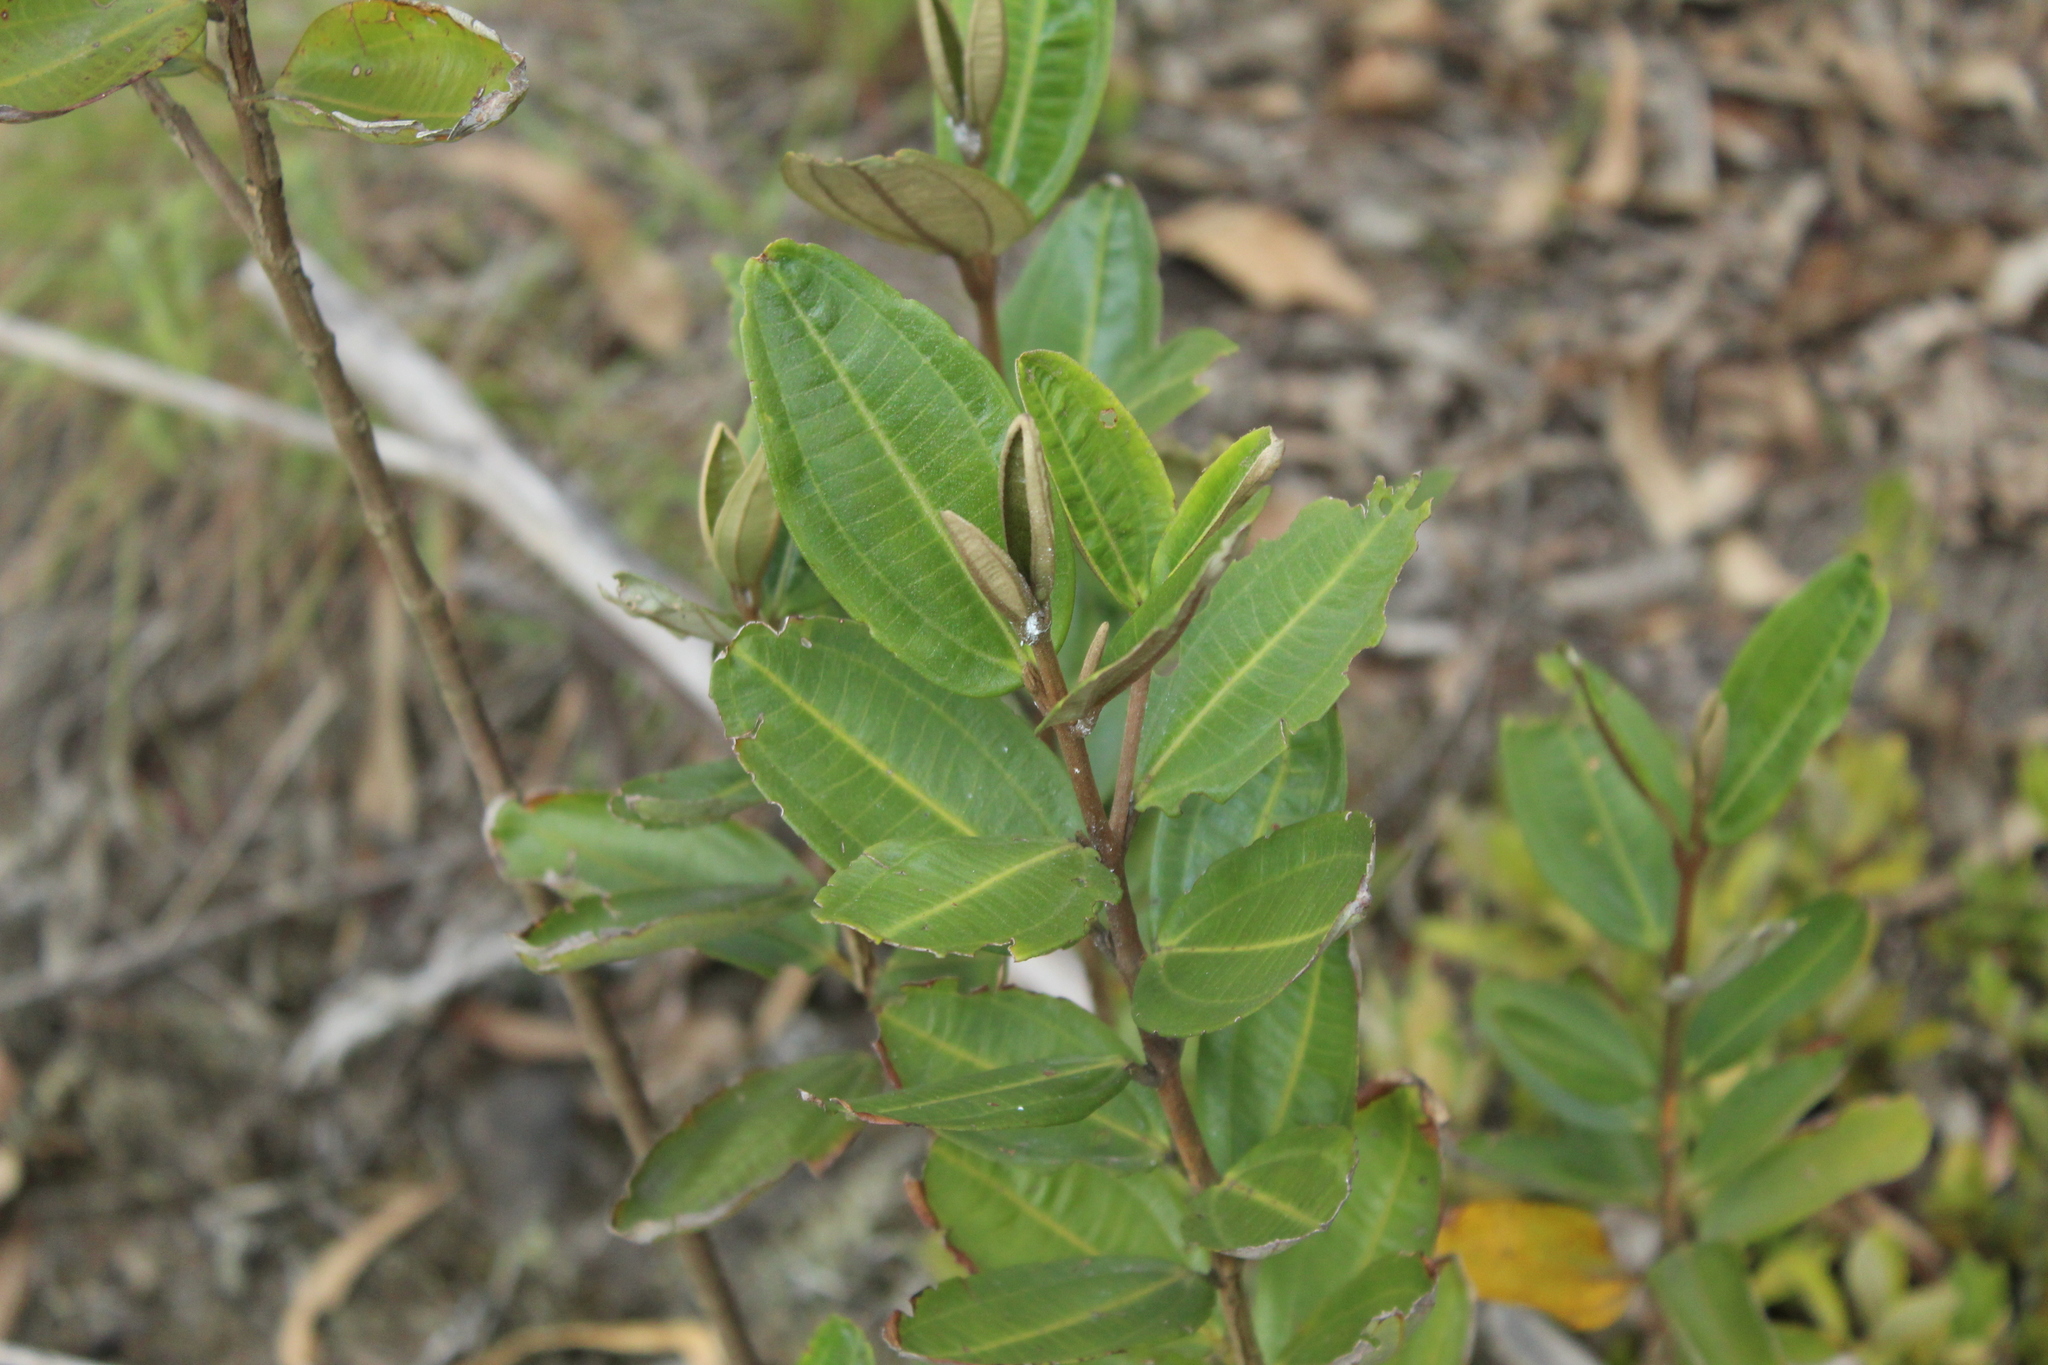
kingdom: Plantae
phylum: Tracheophyta
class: Magnoliopsida
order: Myrtales
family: Melastomataceae
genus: Miconia
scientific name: Miconia squamulosa
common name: Squamulose maya
